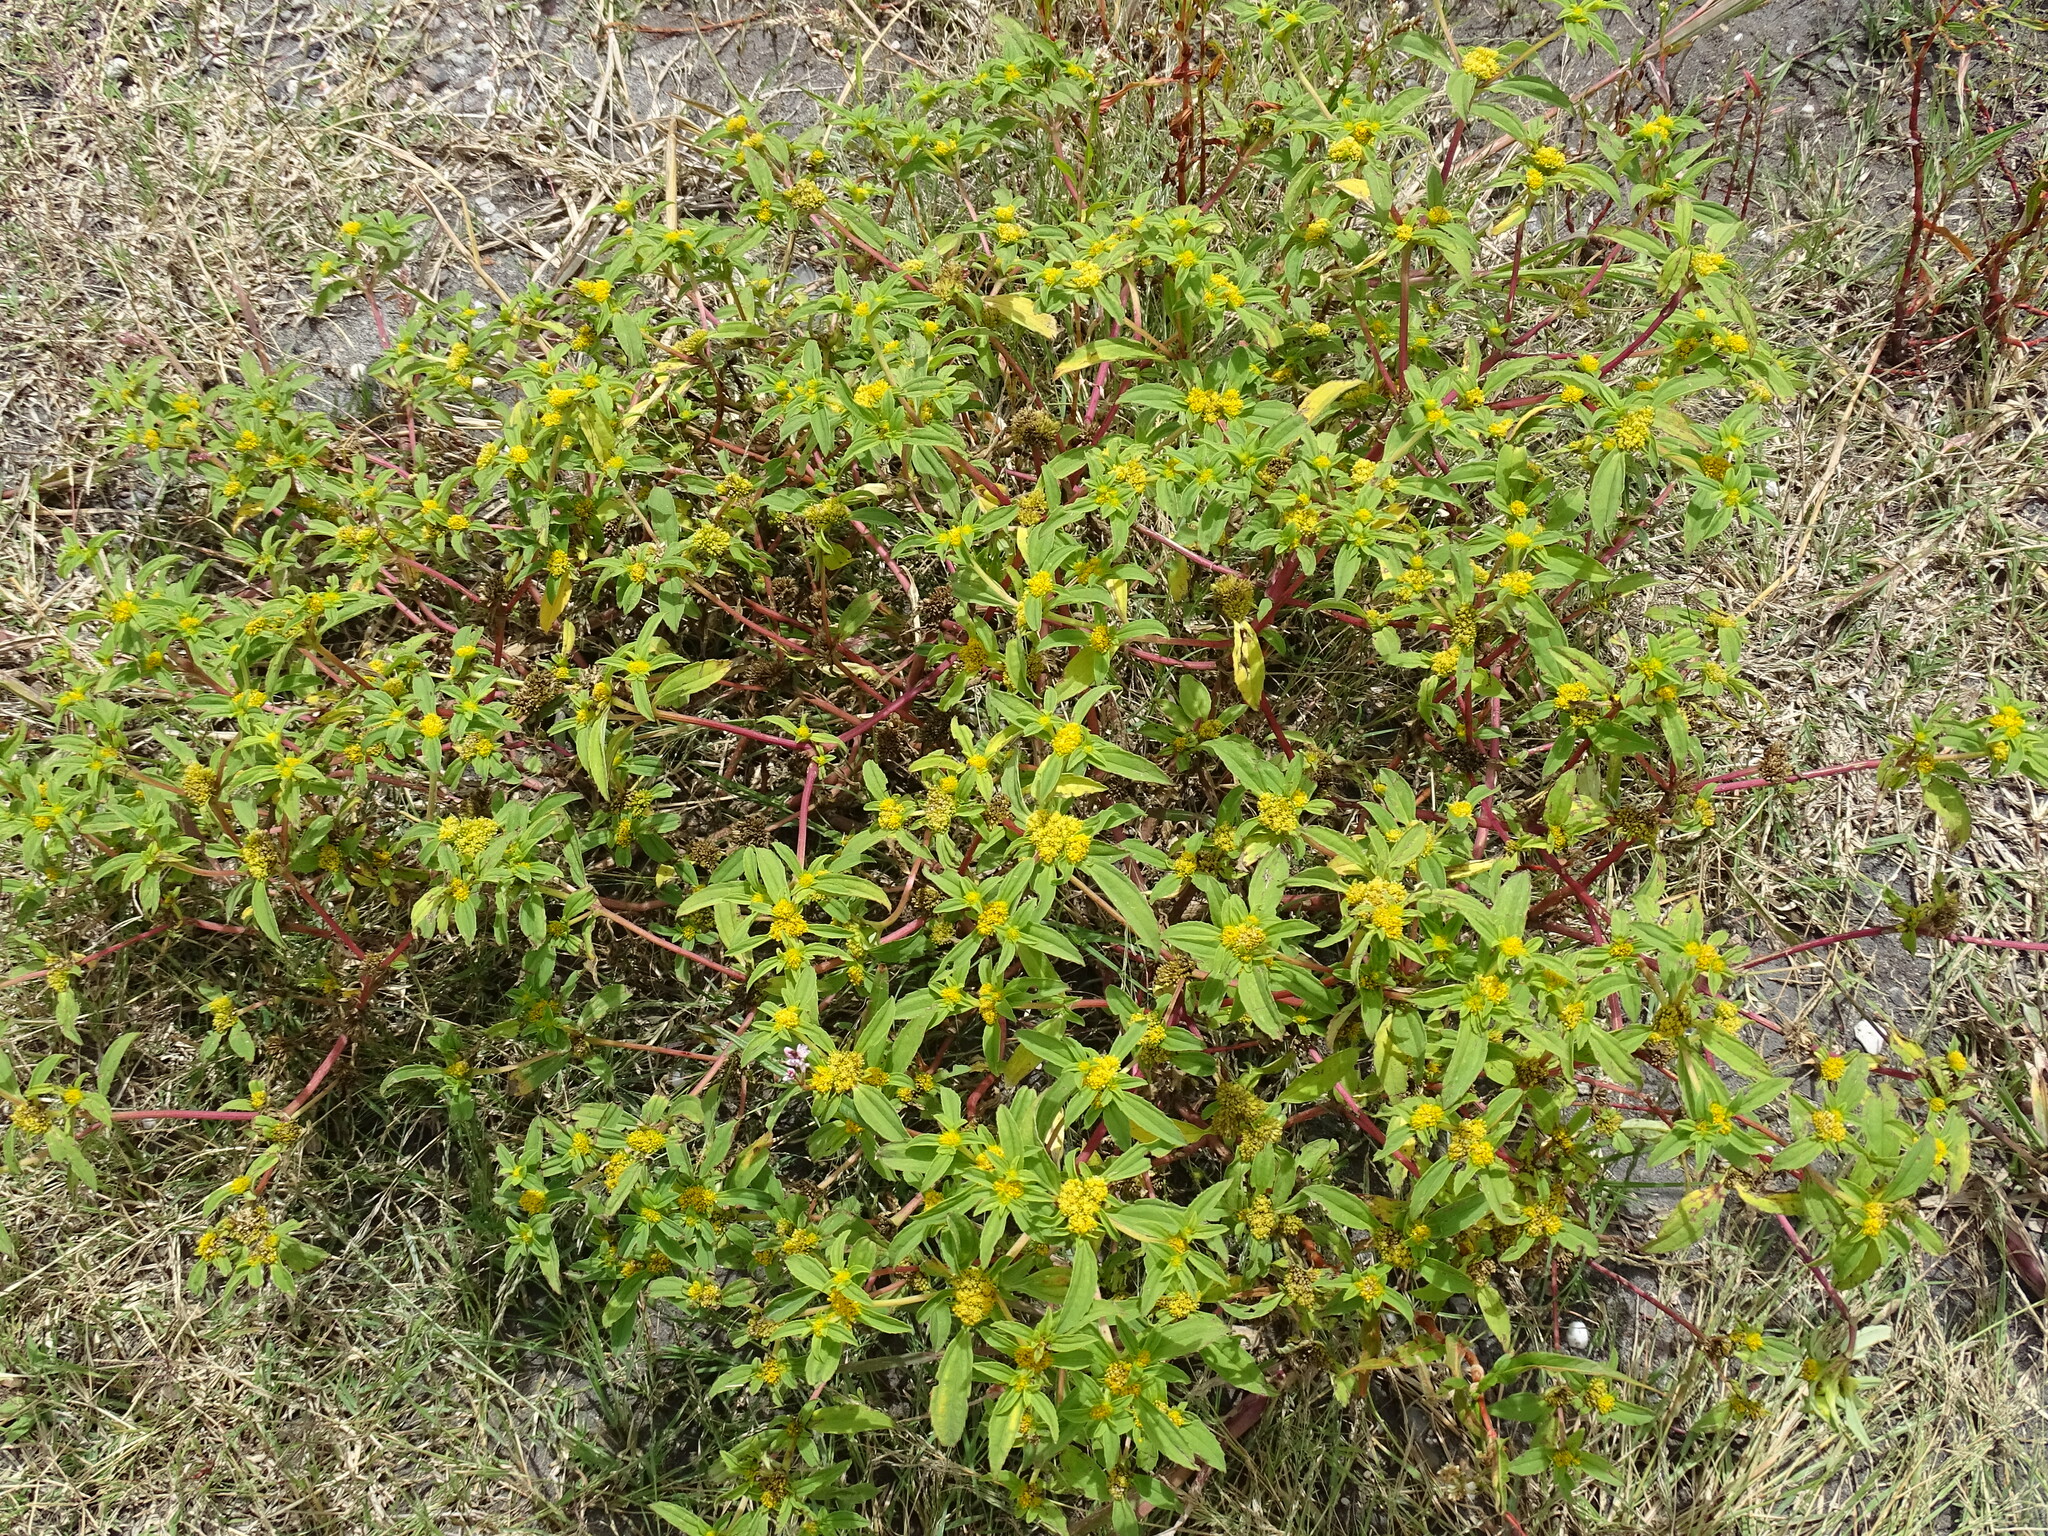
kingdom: Plantae
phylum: Tracheophyta
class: Magnoliopsida
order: Asterales
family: Asteraceae
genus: Flaveria
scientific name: Flaveria trinervia
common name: Clustered yellowtops
